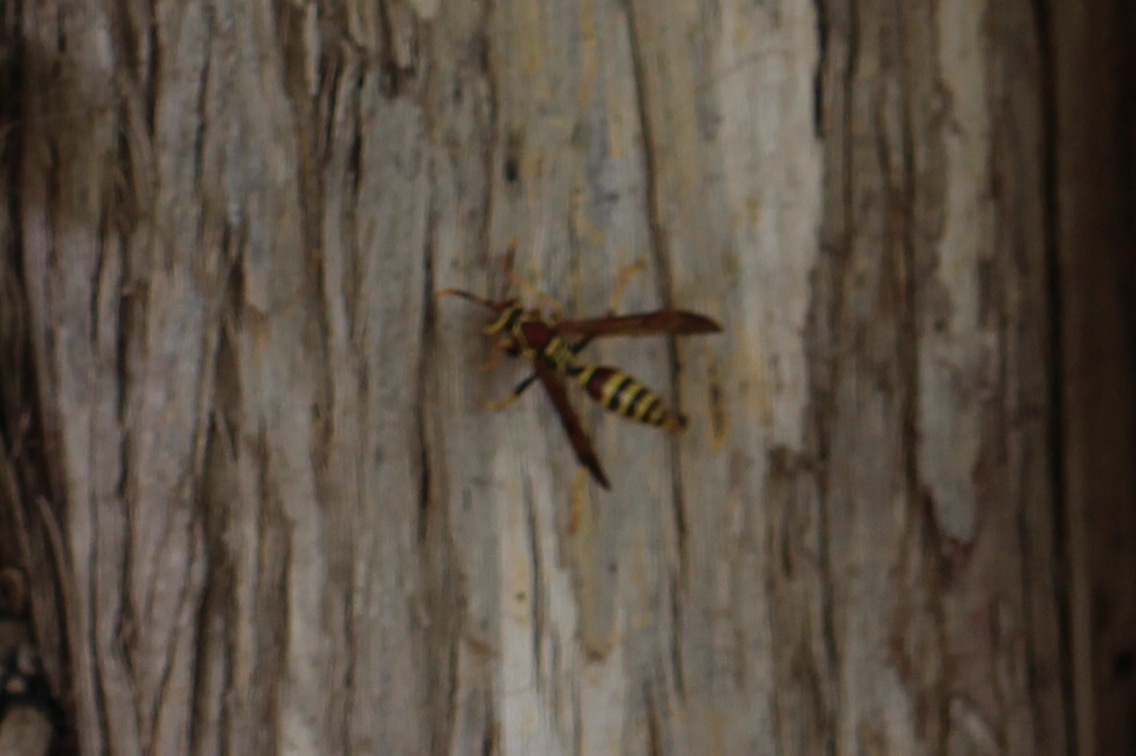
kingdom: Animalia
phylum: Arthropoda
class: Insecta
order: Hymenoptera
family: Eumenidae
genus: Polistes
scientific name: Polistes exclamans
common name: Paper wasp
